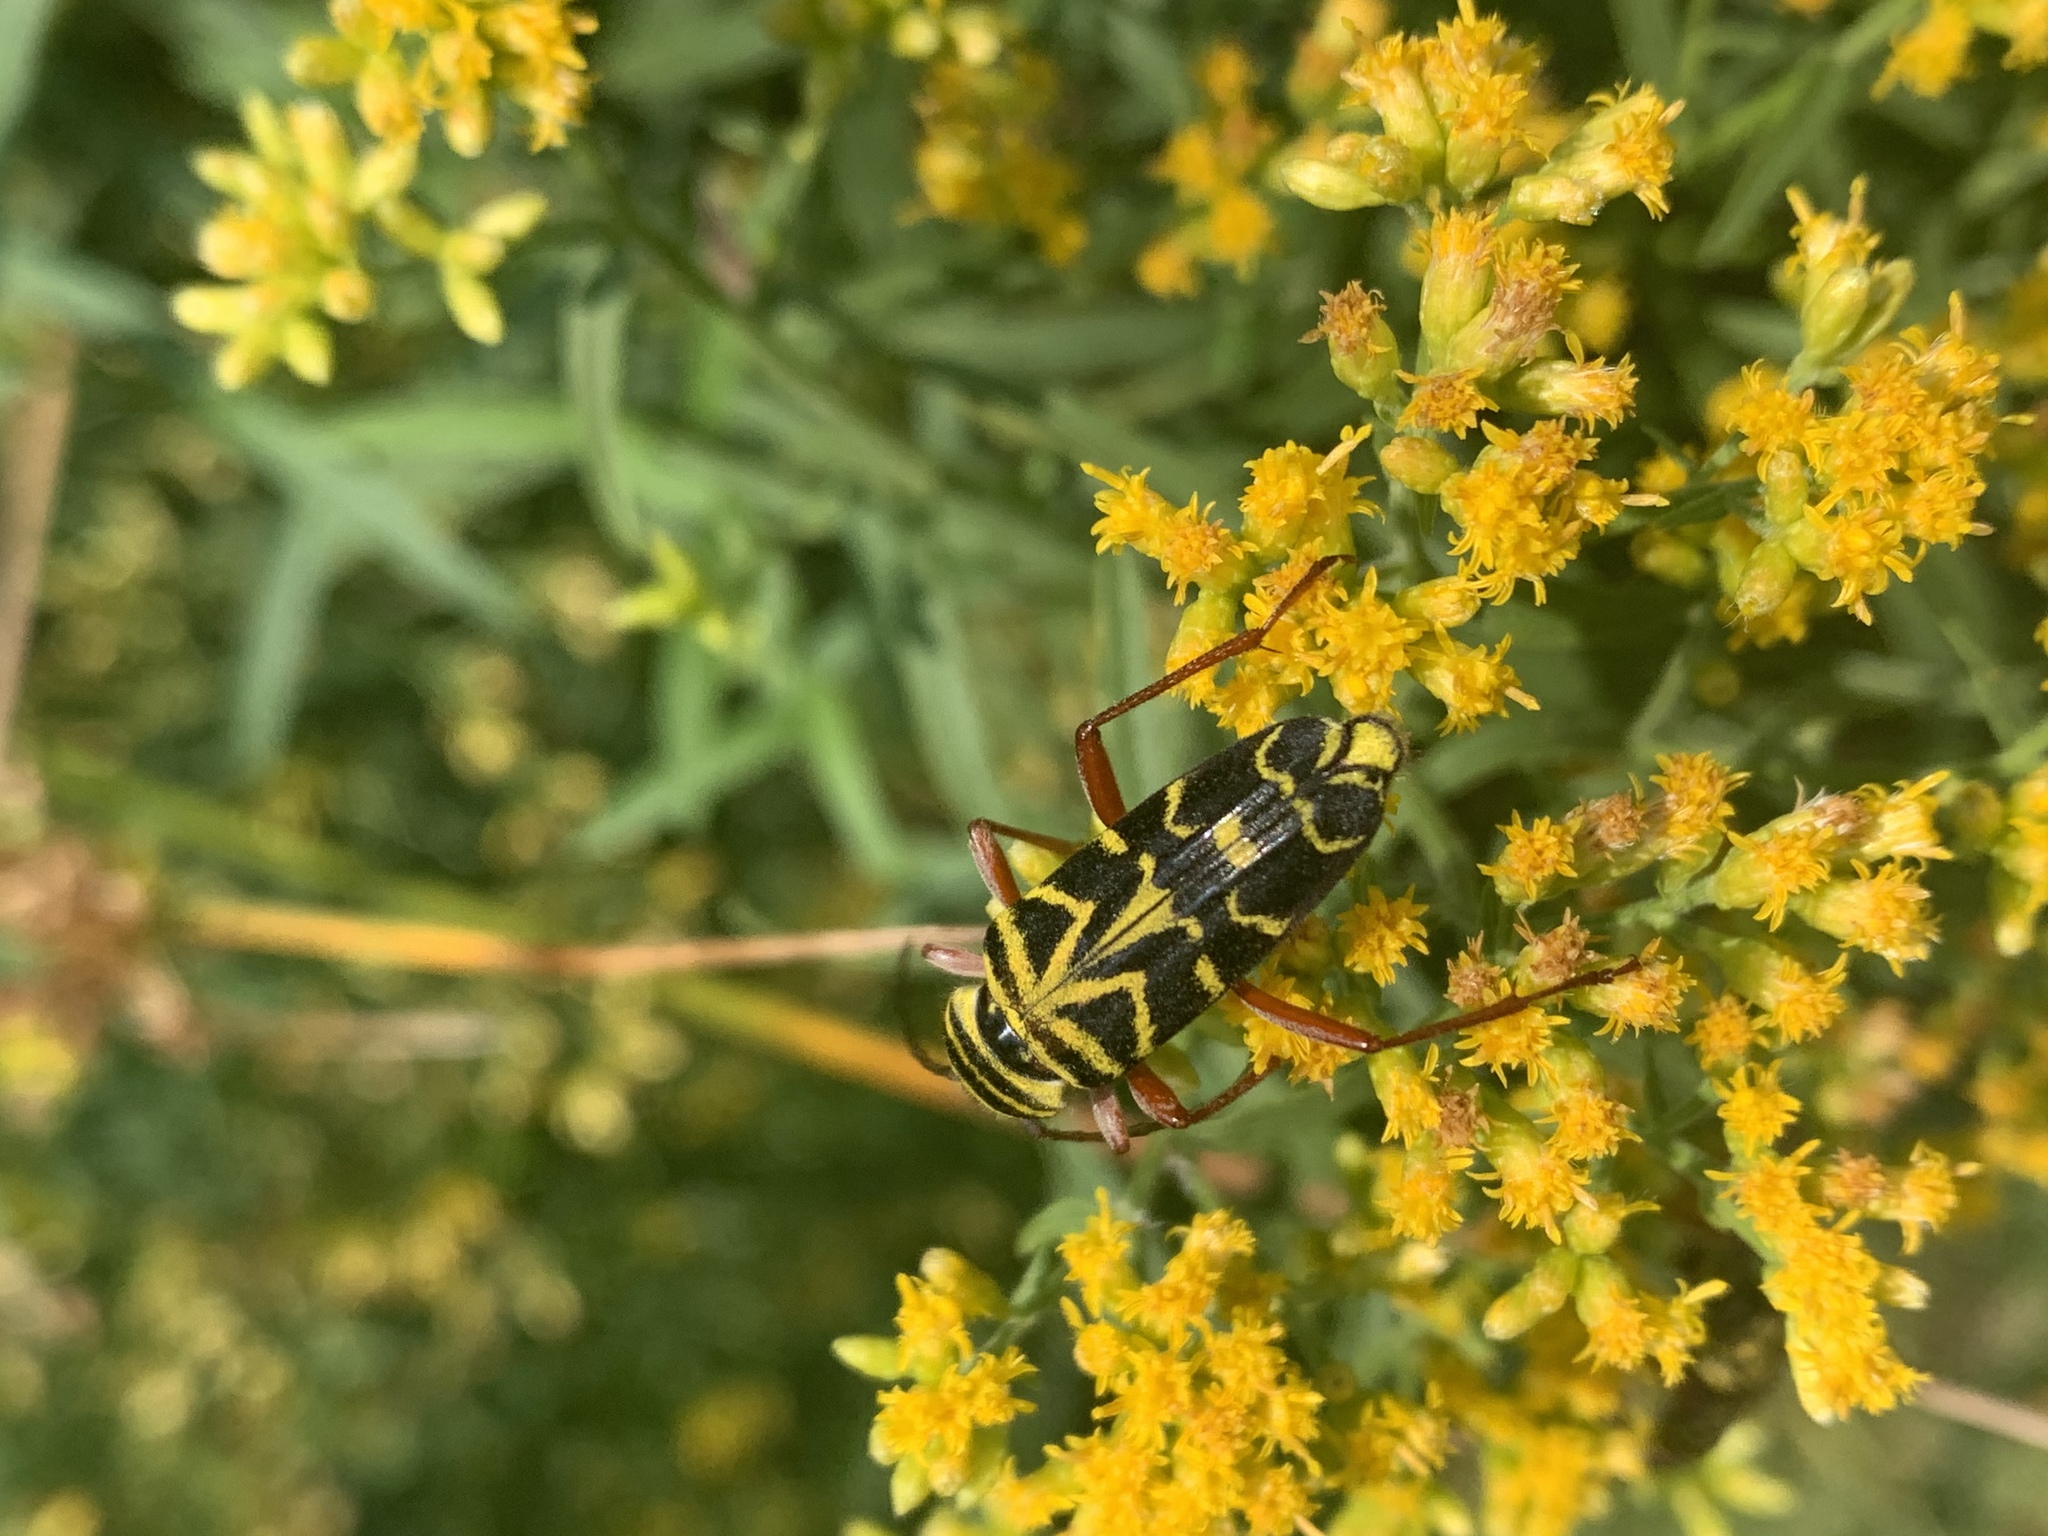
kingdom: Animalia
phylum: Arthropoda
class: Insecta
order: Coleoptera
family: Cerambycidae
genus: Megacyllene
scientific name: Megacyllene robiniae
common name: Locust borer
